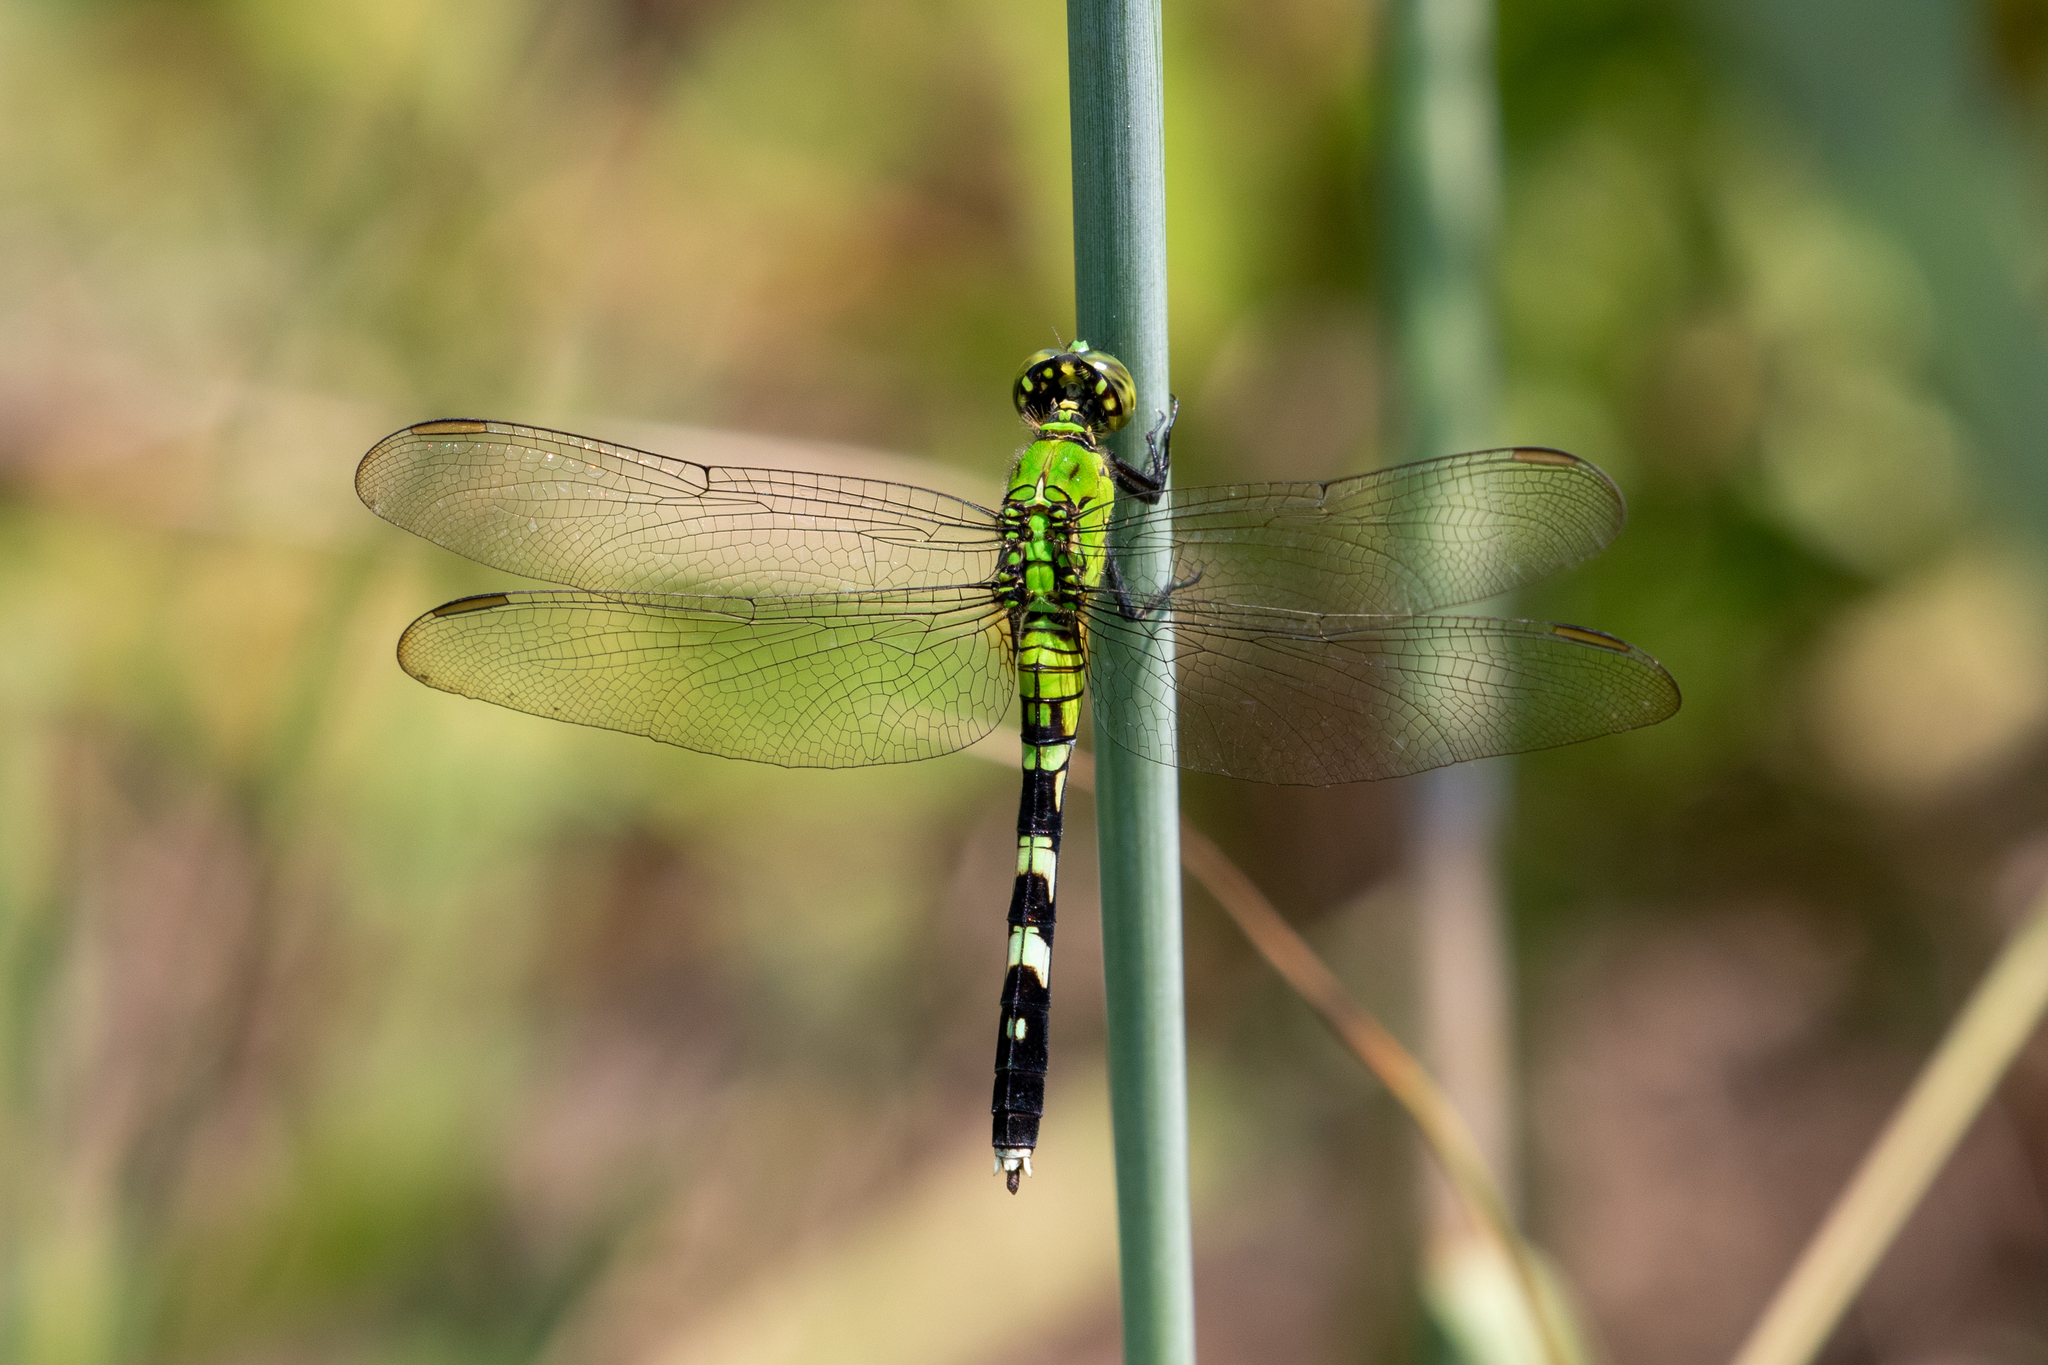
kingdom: Animalia
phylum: Arthropoda
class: Insecta
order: Odonata
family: Libellulidae
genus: Erythemis
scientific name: Erythemis simplicicollis
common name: Eastern pondhawk
